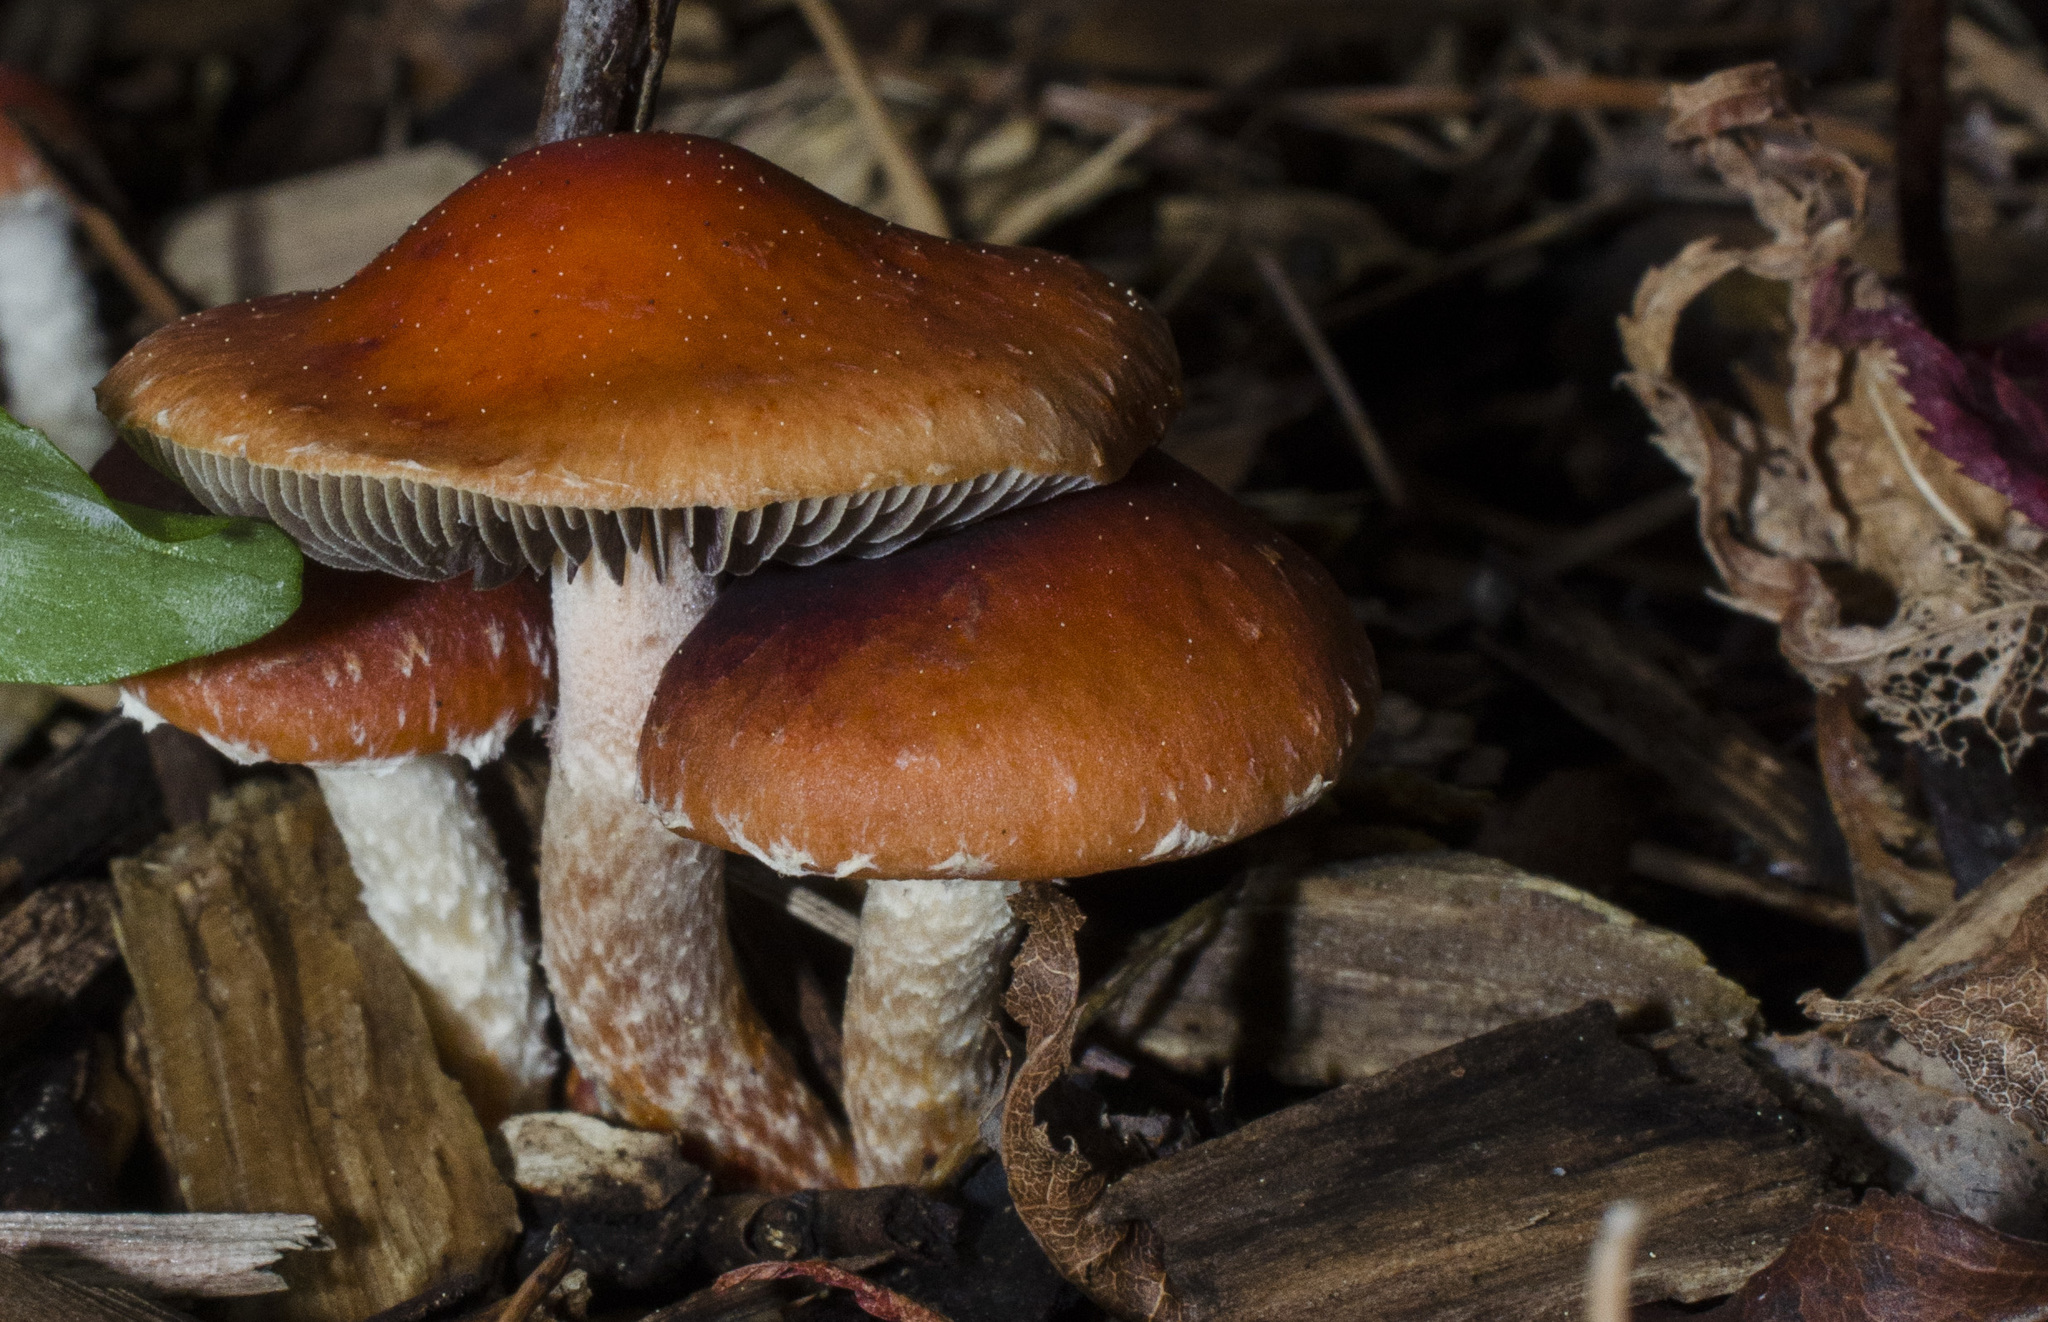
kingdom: Fungi
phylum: Basidiomycota
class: Agaricomycetes
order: Agaricales
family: Strophariaceae
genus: Leratiomyces
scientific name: Leratiomyces ceres
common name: Redlead roundhead
